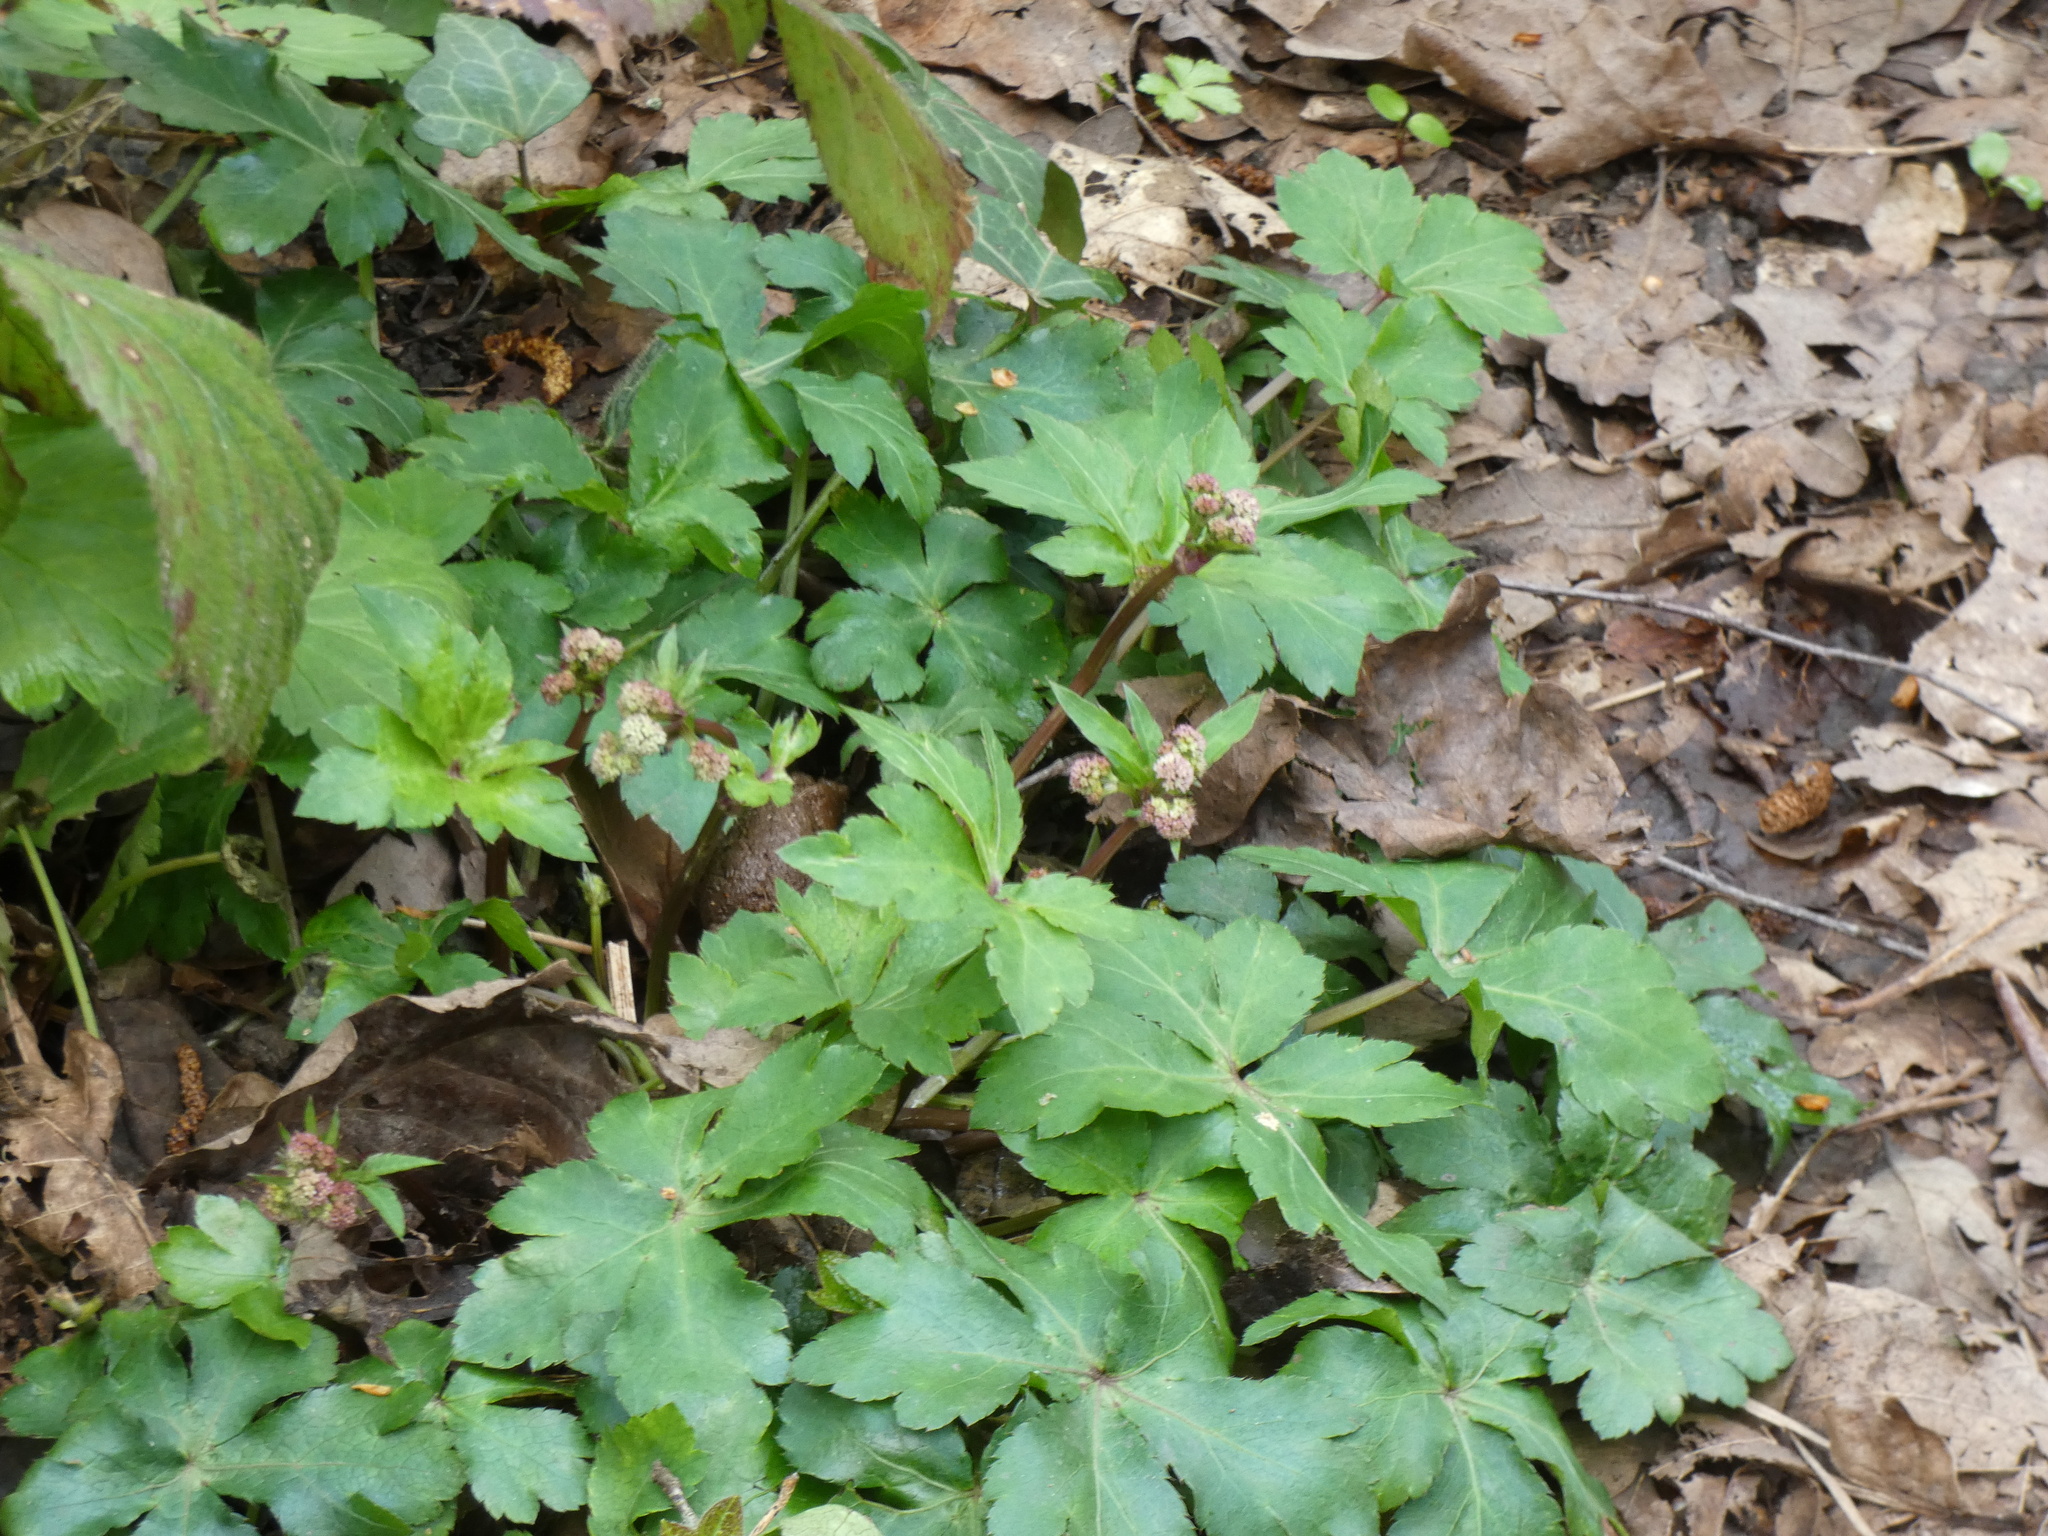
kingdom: Plantae
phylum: Tracheophyta
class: Magnoliopsida
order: Apiales
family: Apiaceae
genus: Sanicula
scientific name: Sanicula europaea
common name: Sanicle
